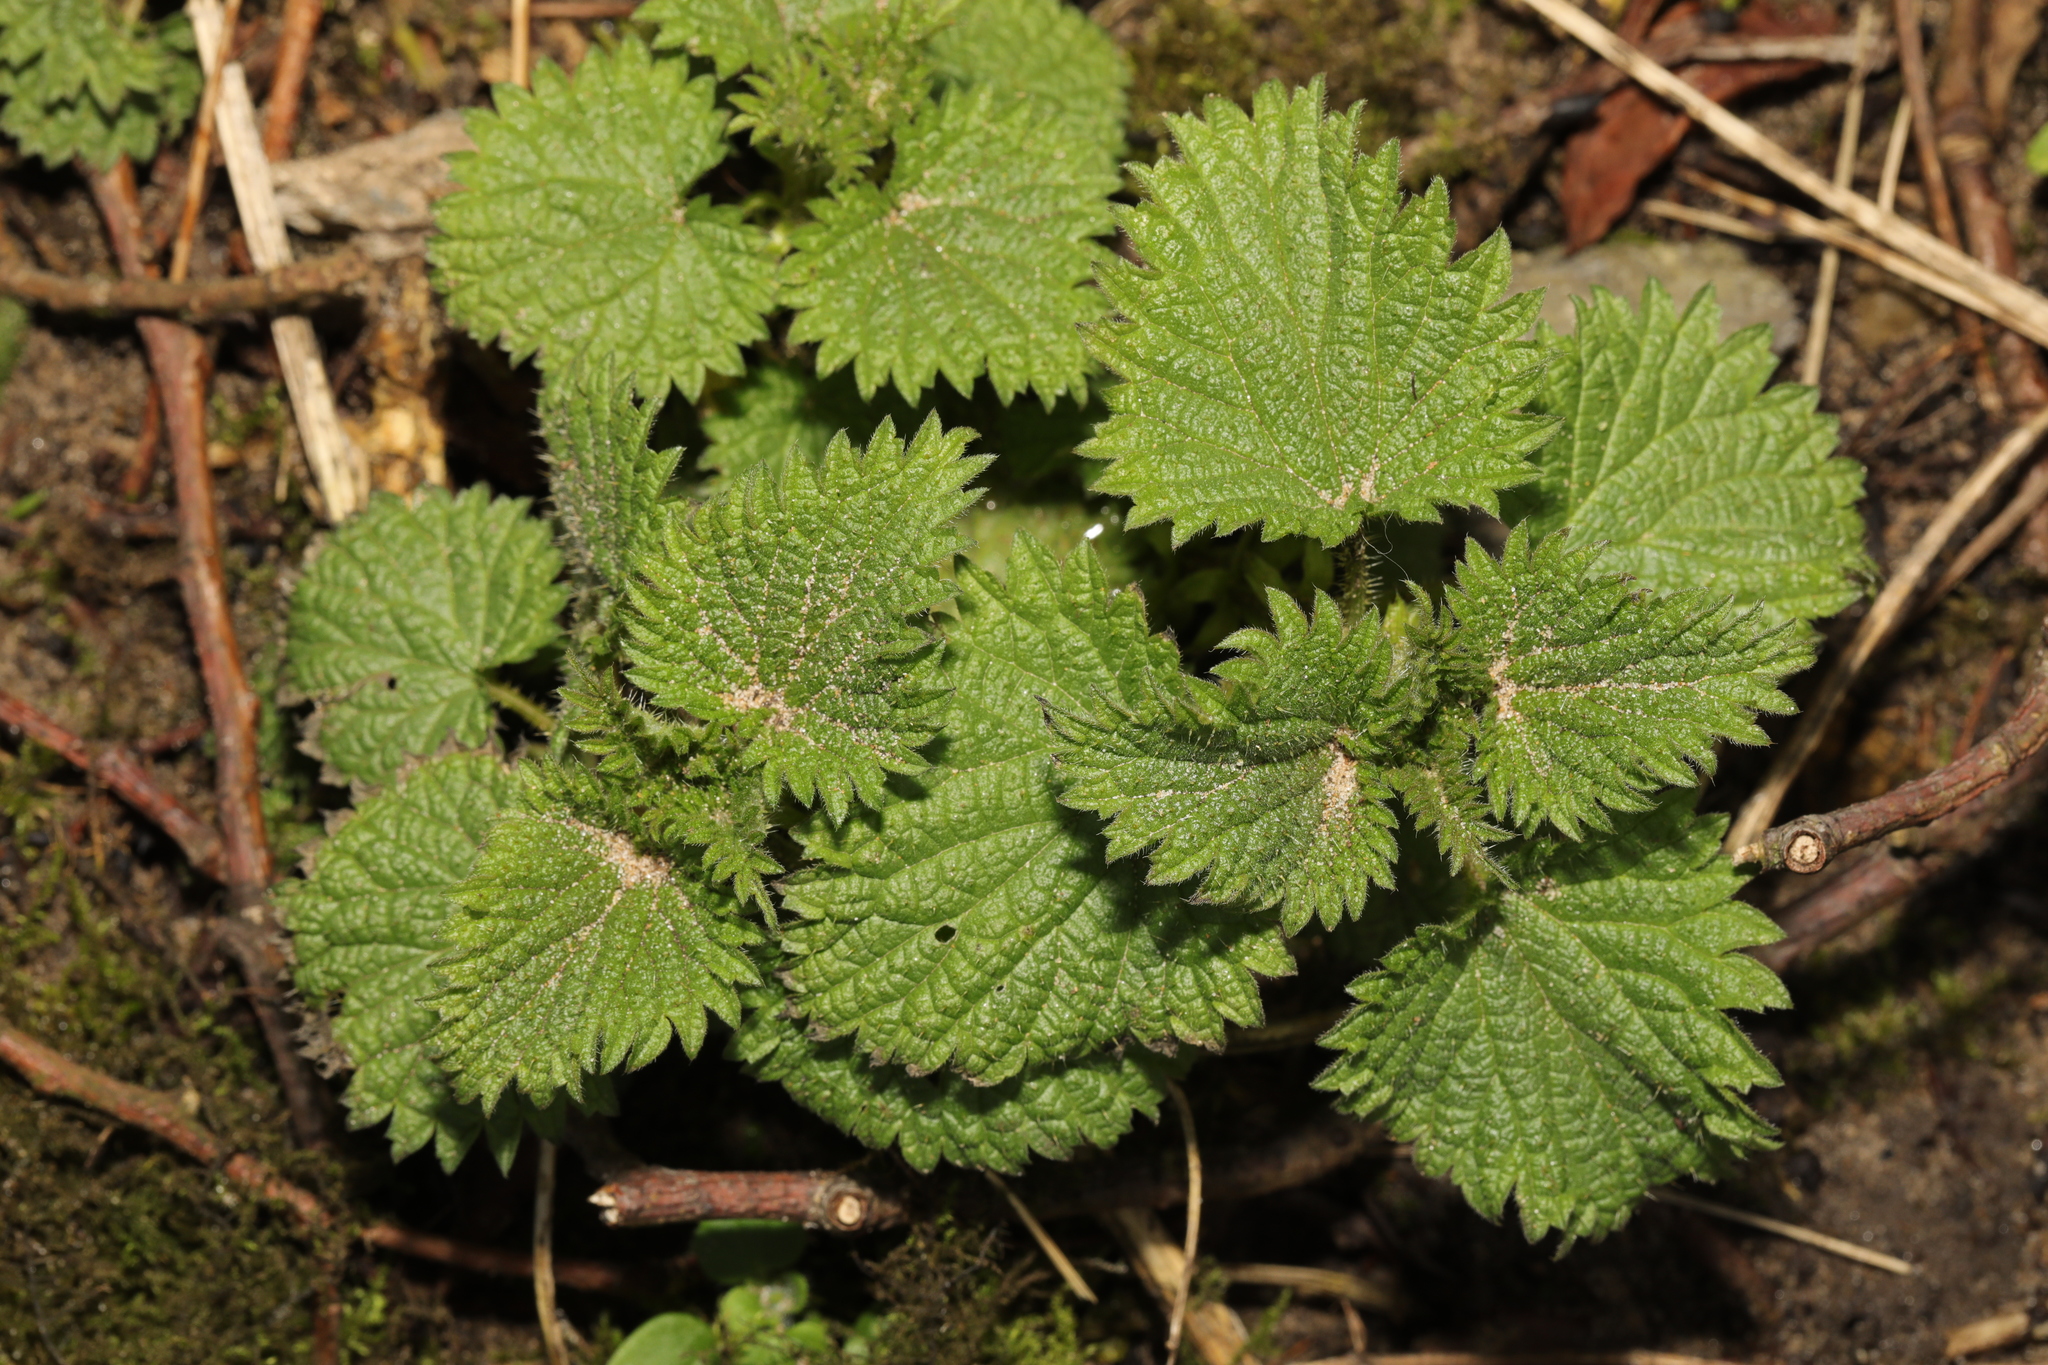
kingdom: Plantae
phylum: Tracheophyta
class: Magnoliopsida
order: Rosales
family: Urticaceae
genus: Urtica
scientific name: Urtica dioica
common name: Common nettle
